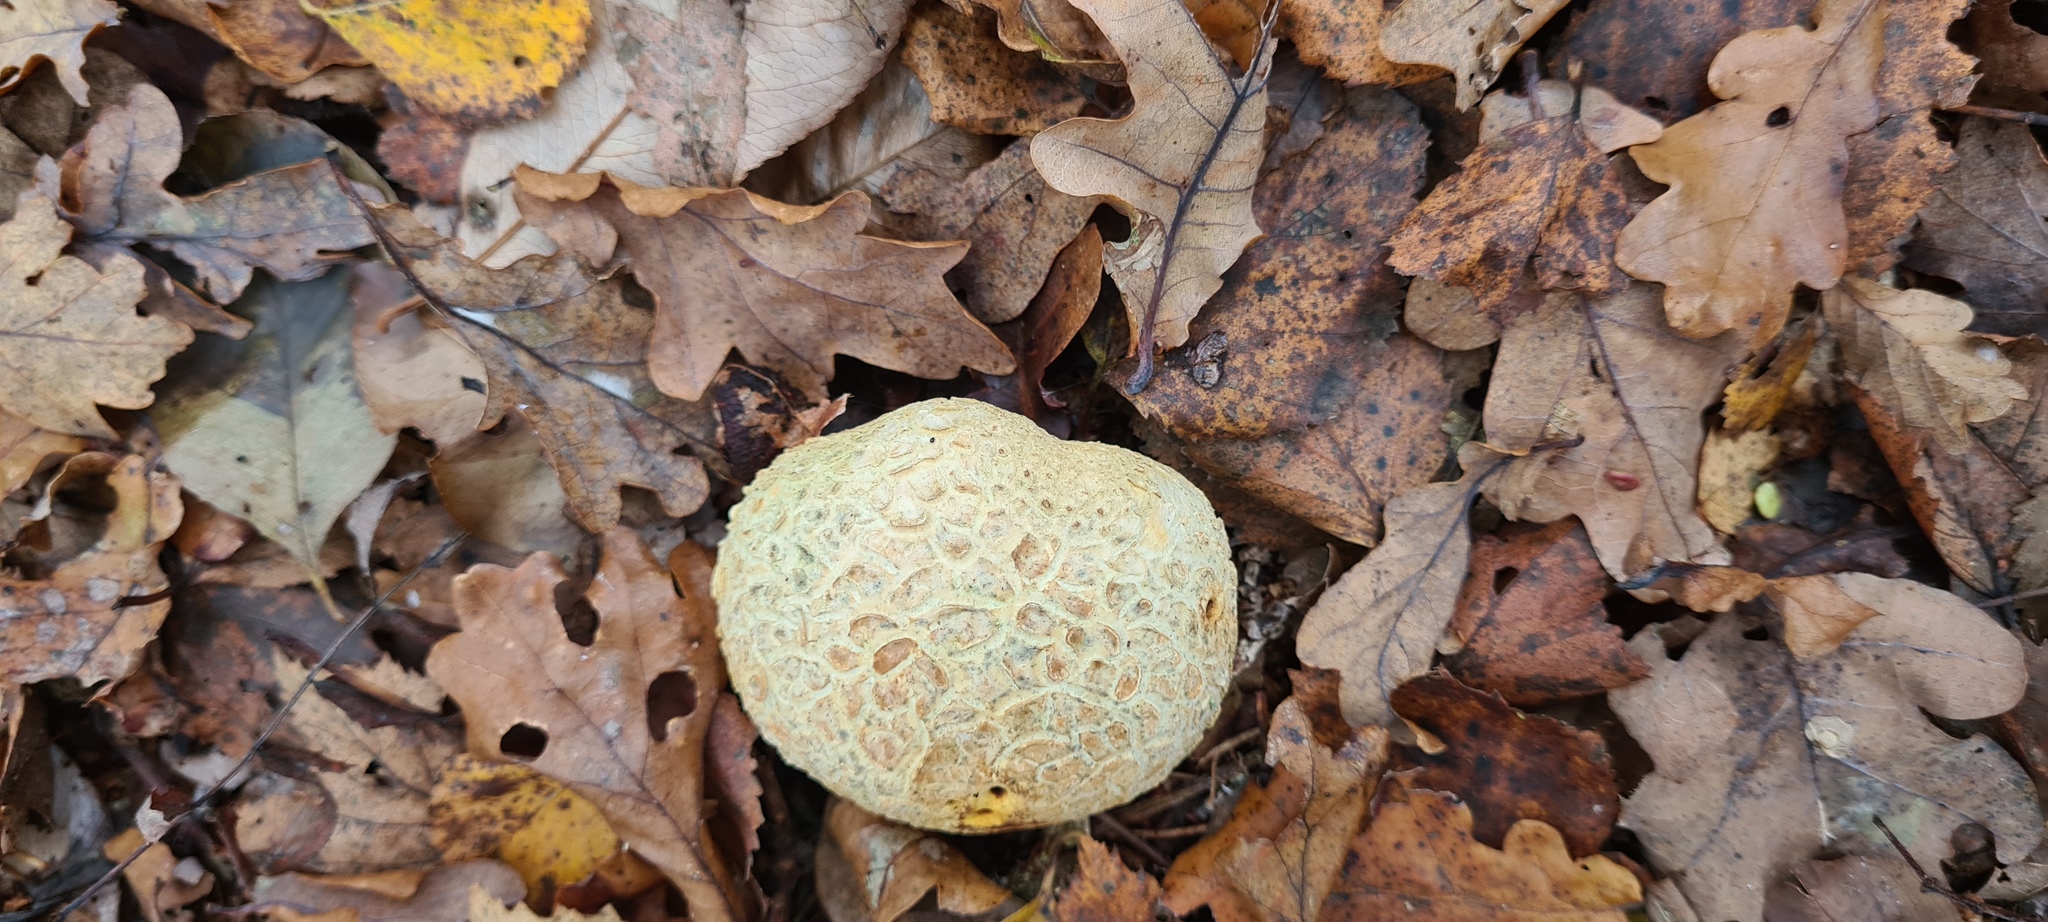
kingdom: Fungi
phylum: Basidiomycota
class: Agaricomycetes
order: Boletales
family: Sclerodermataceae
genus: Scleroderma
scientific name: Scleroderma citrinum
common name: Common earthball
